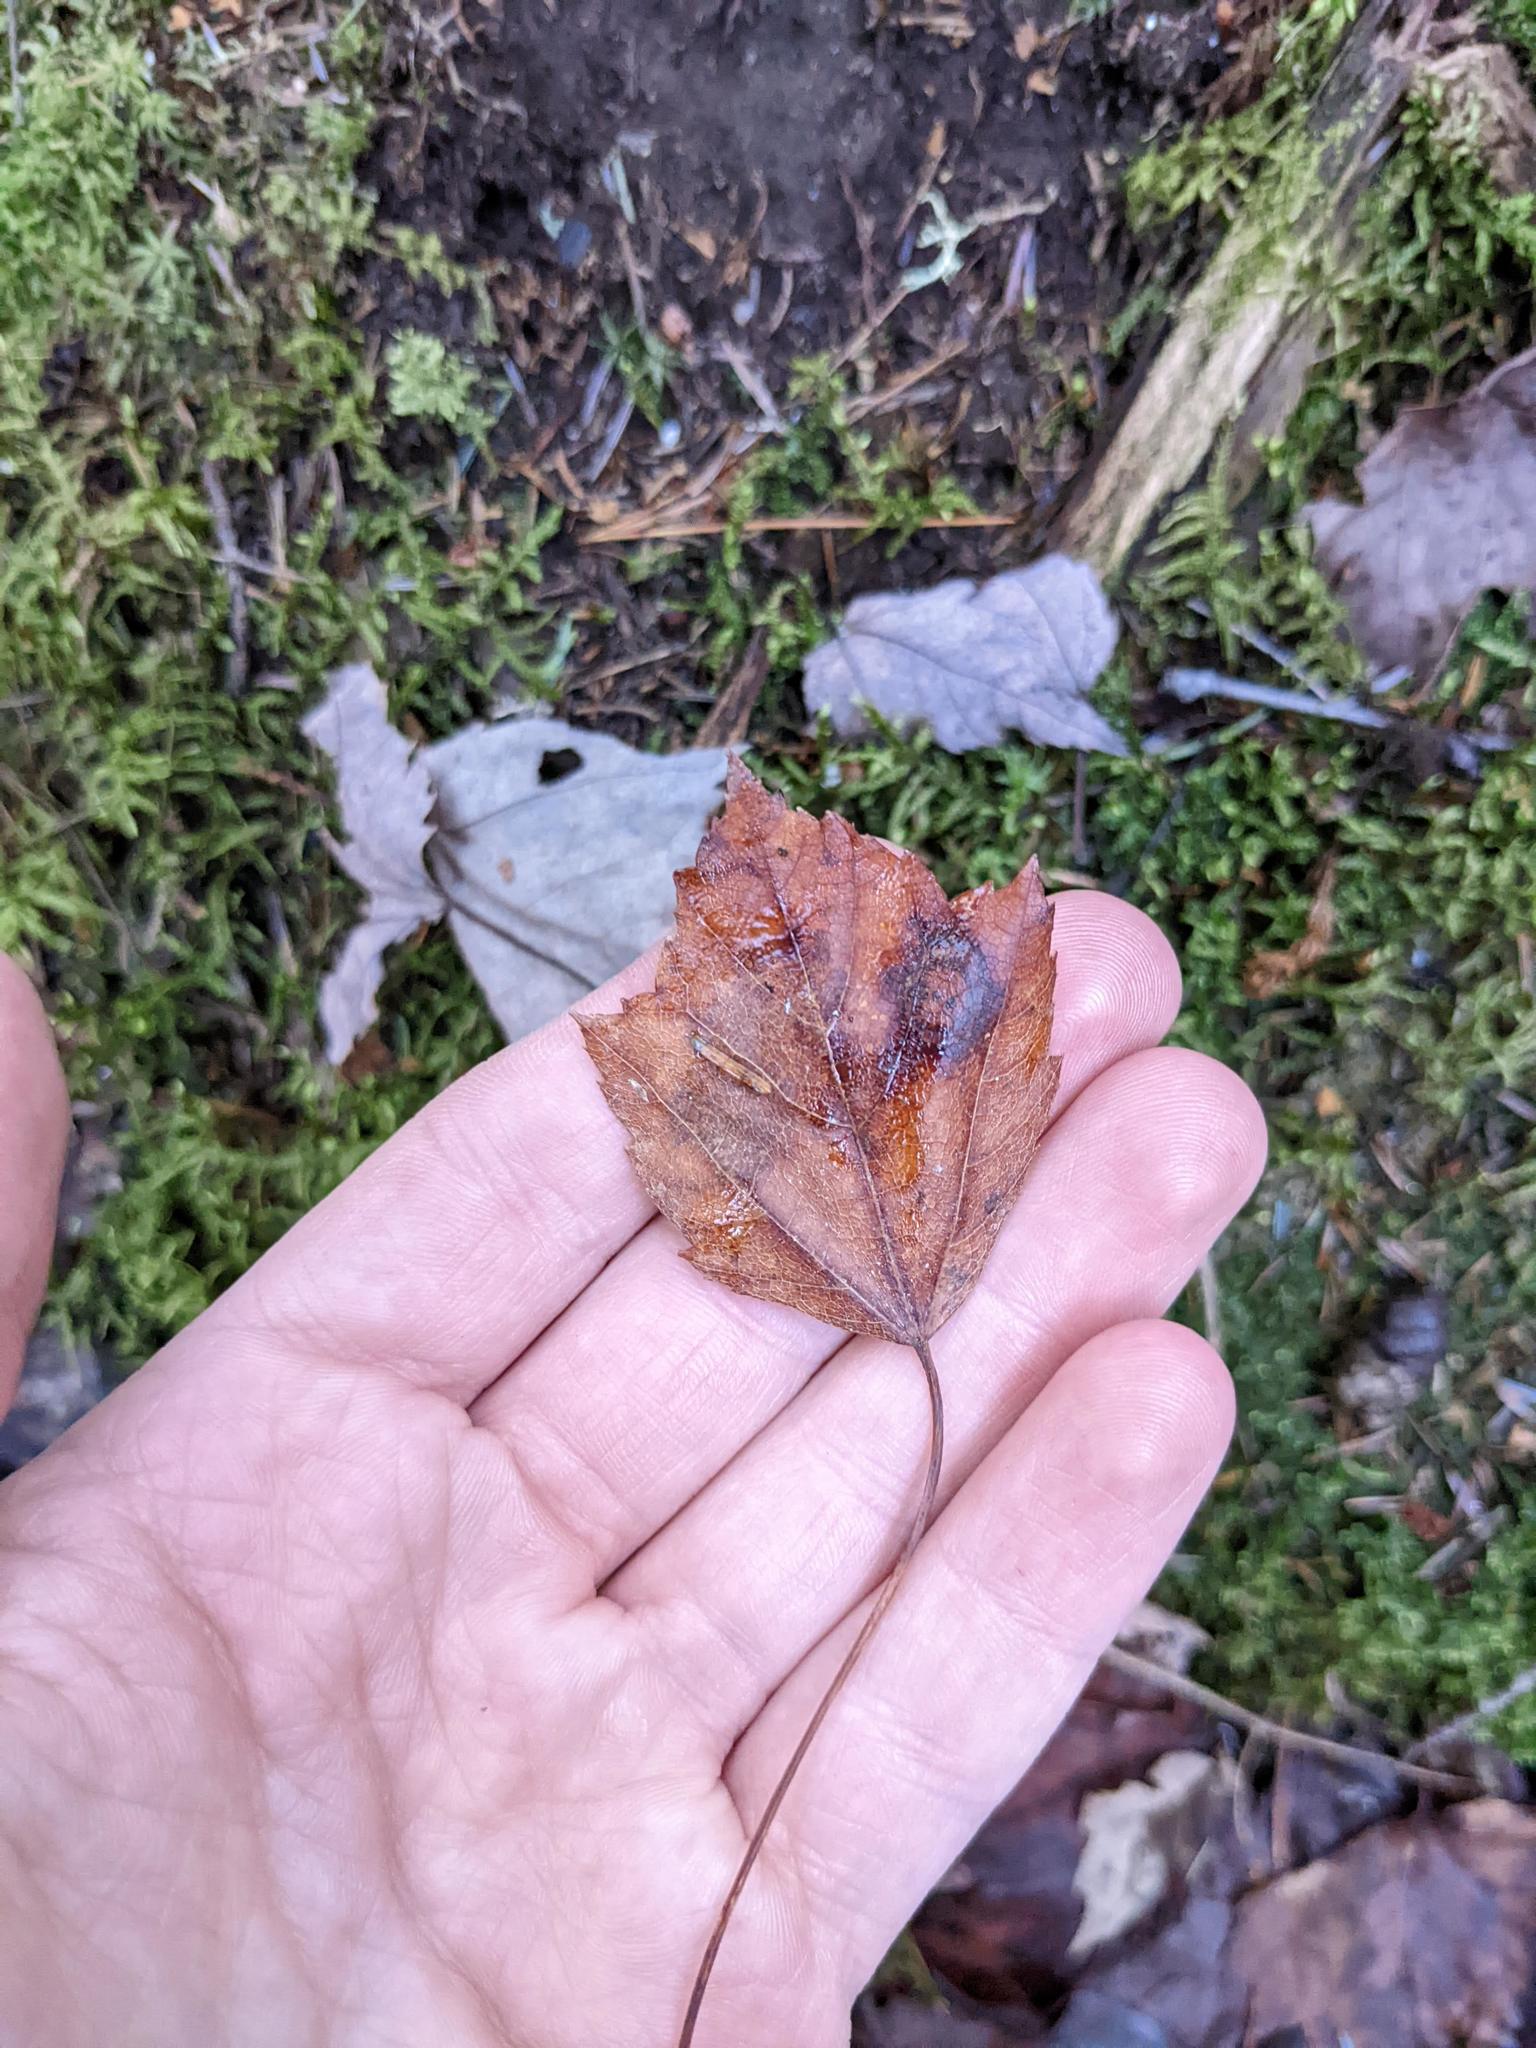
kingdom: Plantae
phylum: Tracheophyta
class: Magnoliopsida
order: Sapindales
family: Sapindaceae
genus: Acer
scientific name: Acer rubrum
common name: Red maple
